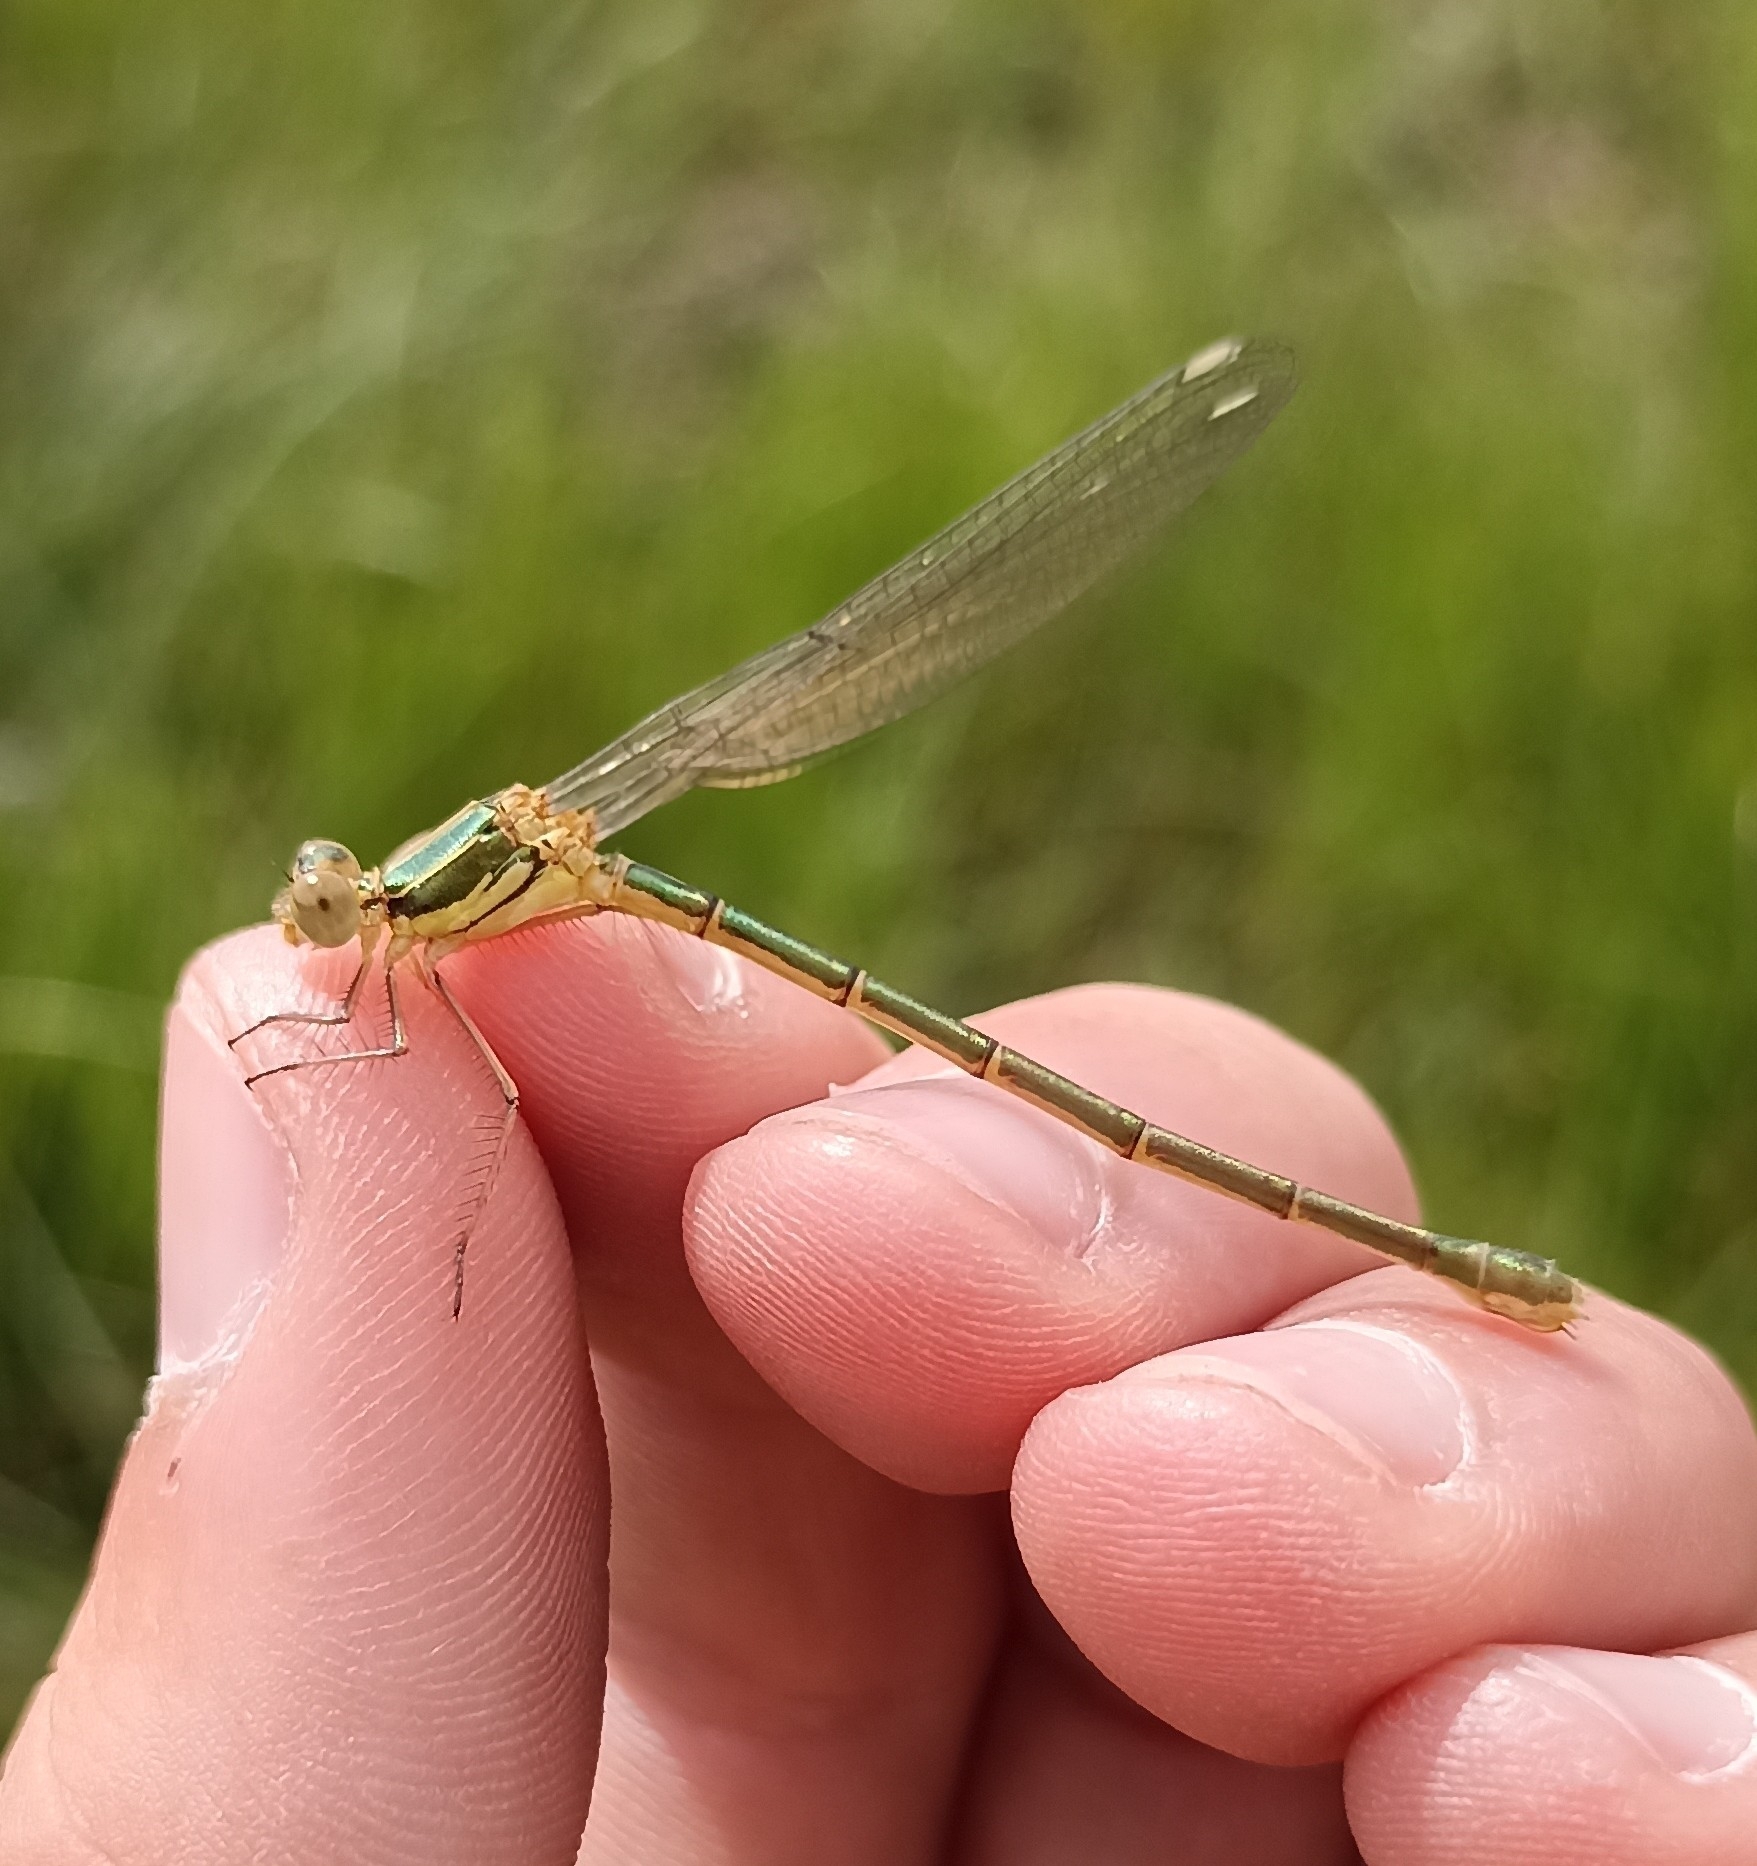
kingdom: Animalia
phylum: Arthropoda
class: Insecta
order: Odonata
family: Lestidae
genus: Chalcolestes
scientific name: Chalcolestes viridis
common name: Green emerald damselfly
